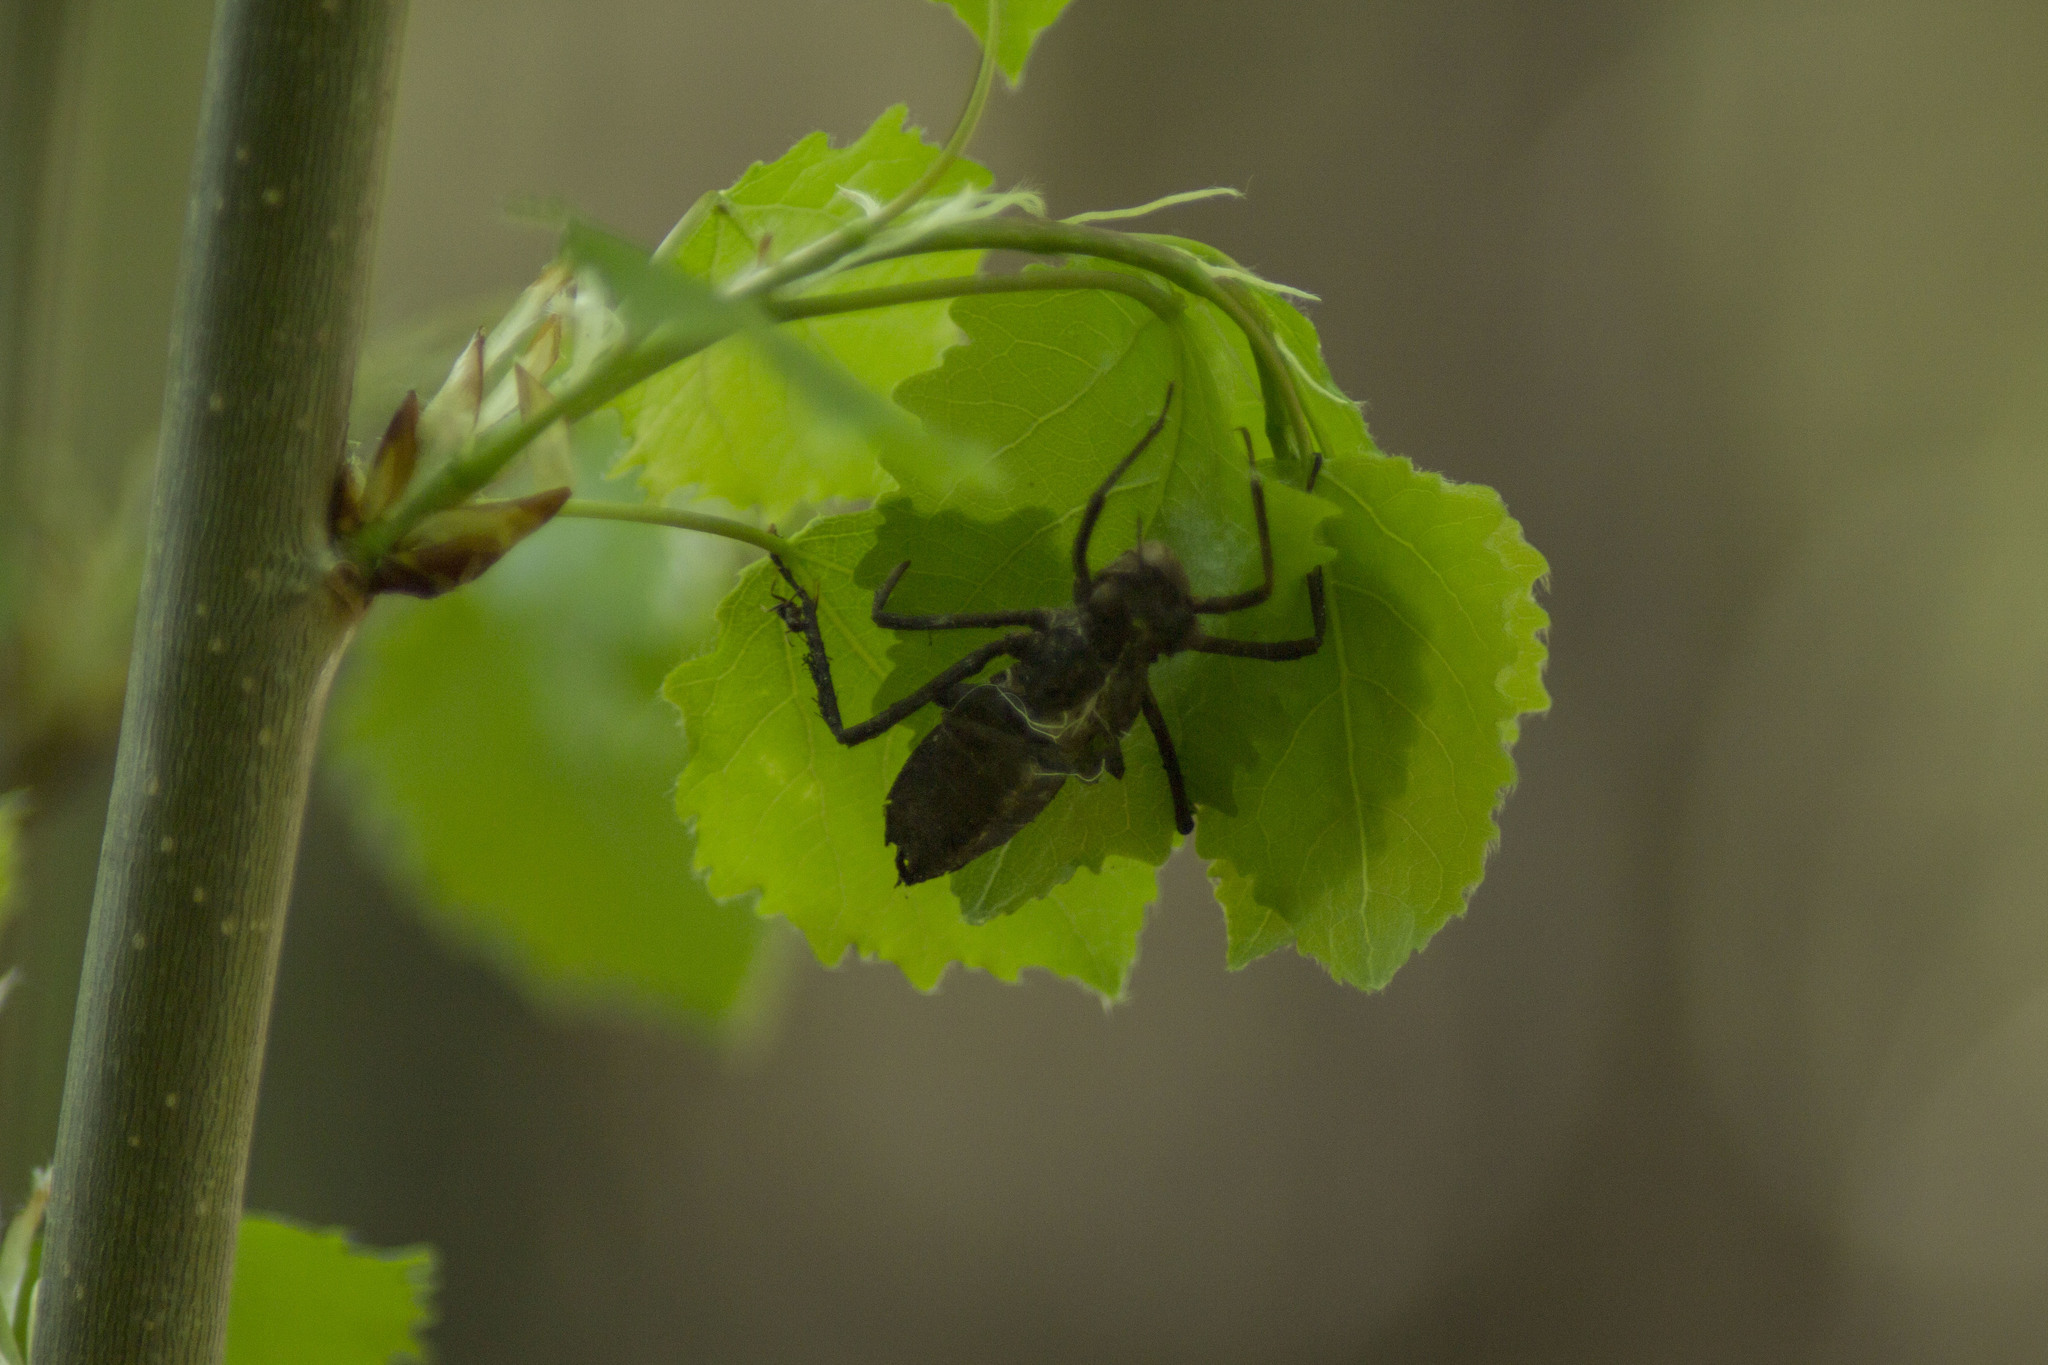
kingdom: Animalia
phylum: Arthropoda
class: Insecta
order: Odonata
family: Corduliidae
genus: Cordulia
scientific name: Cordulia aenea
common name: Downy emerald
